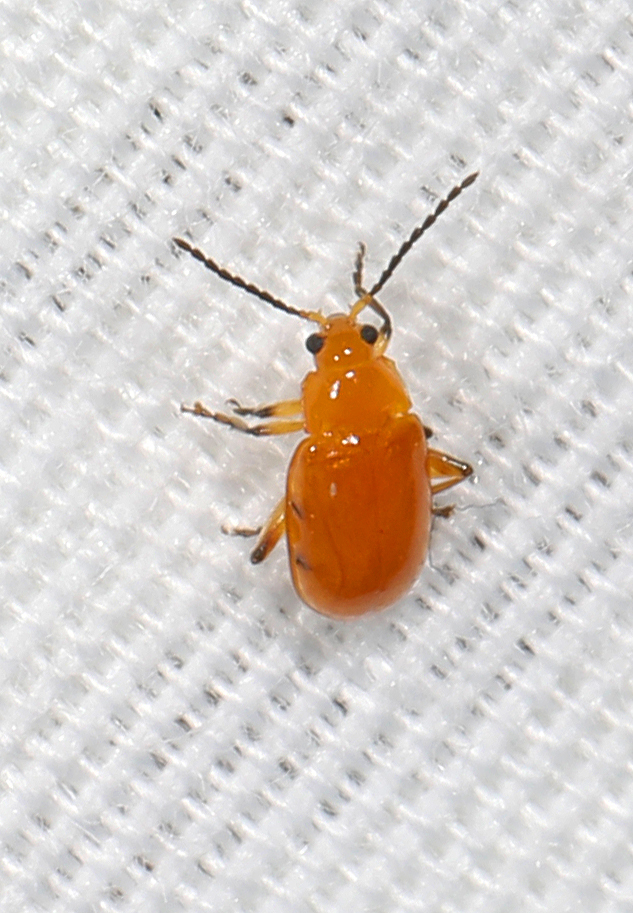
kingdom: Animalia
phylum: Arthropoda
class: Insecta
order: Coleoptera
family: Chrysomelidae
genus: Parchicola
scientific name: Parchicola tibialis
